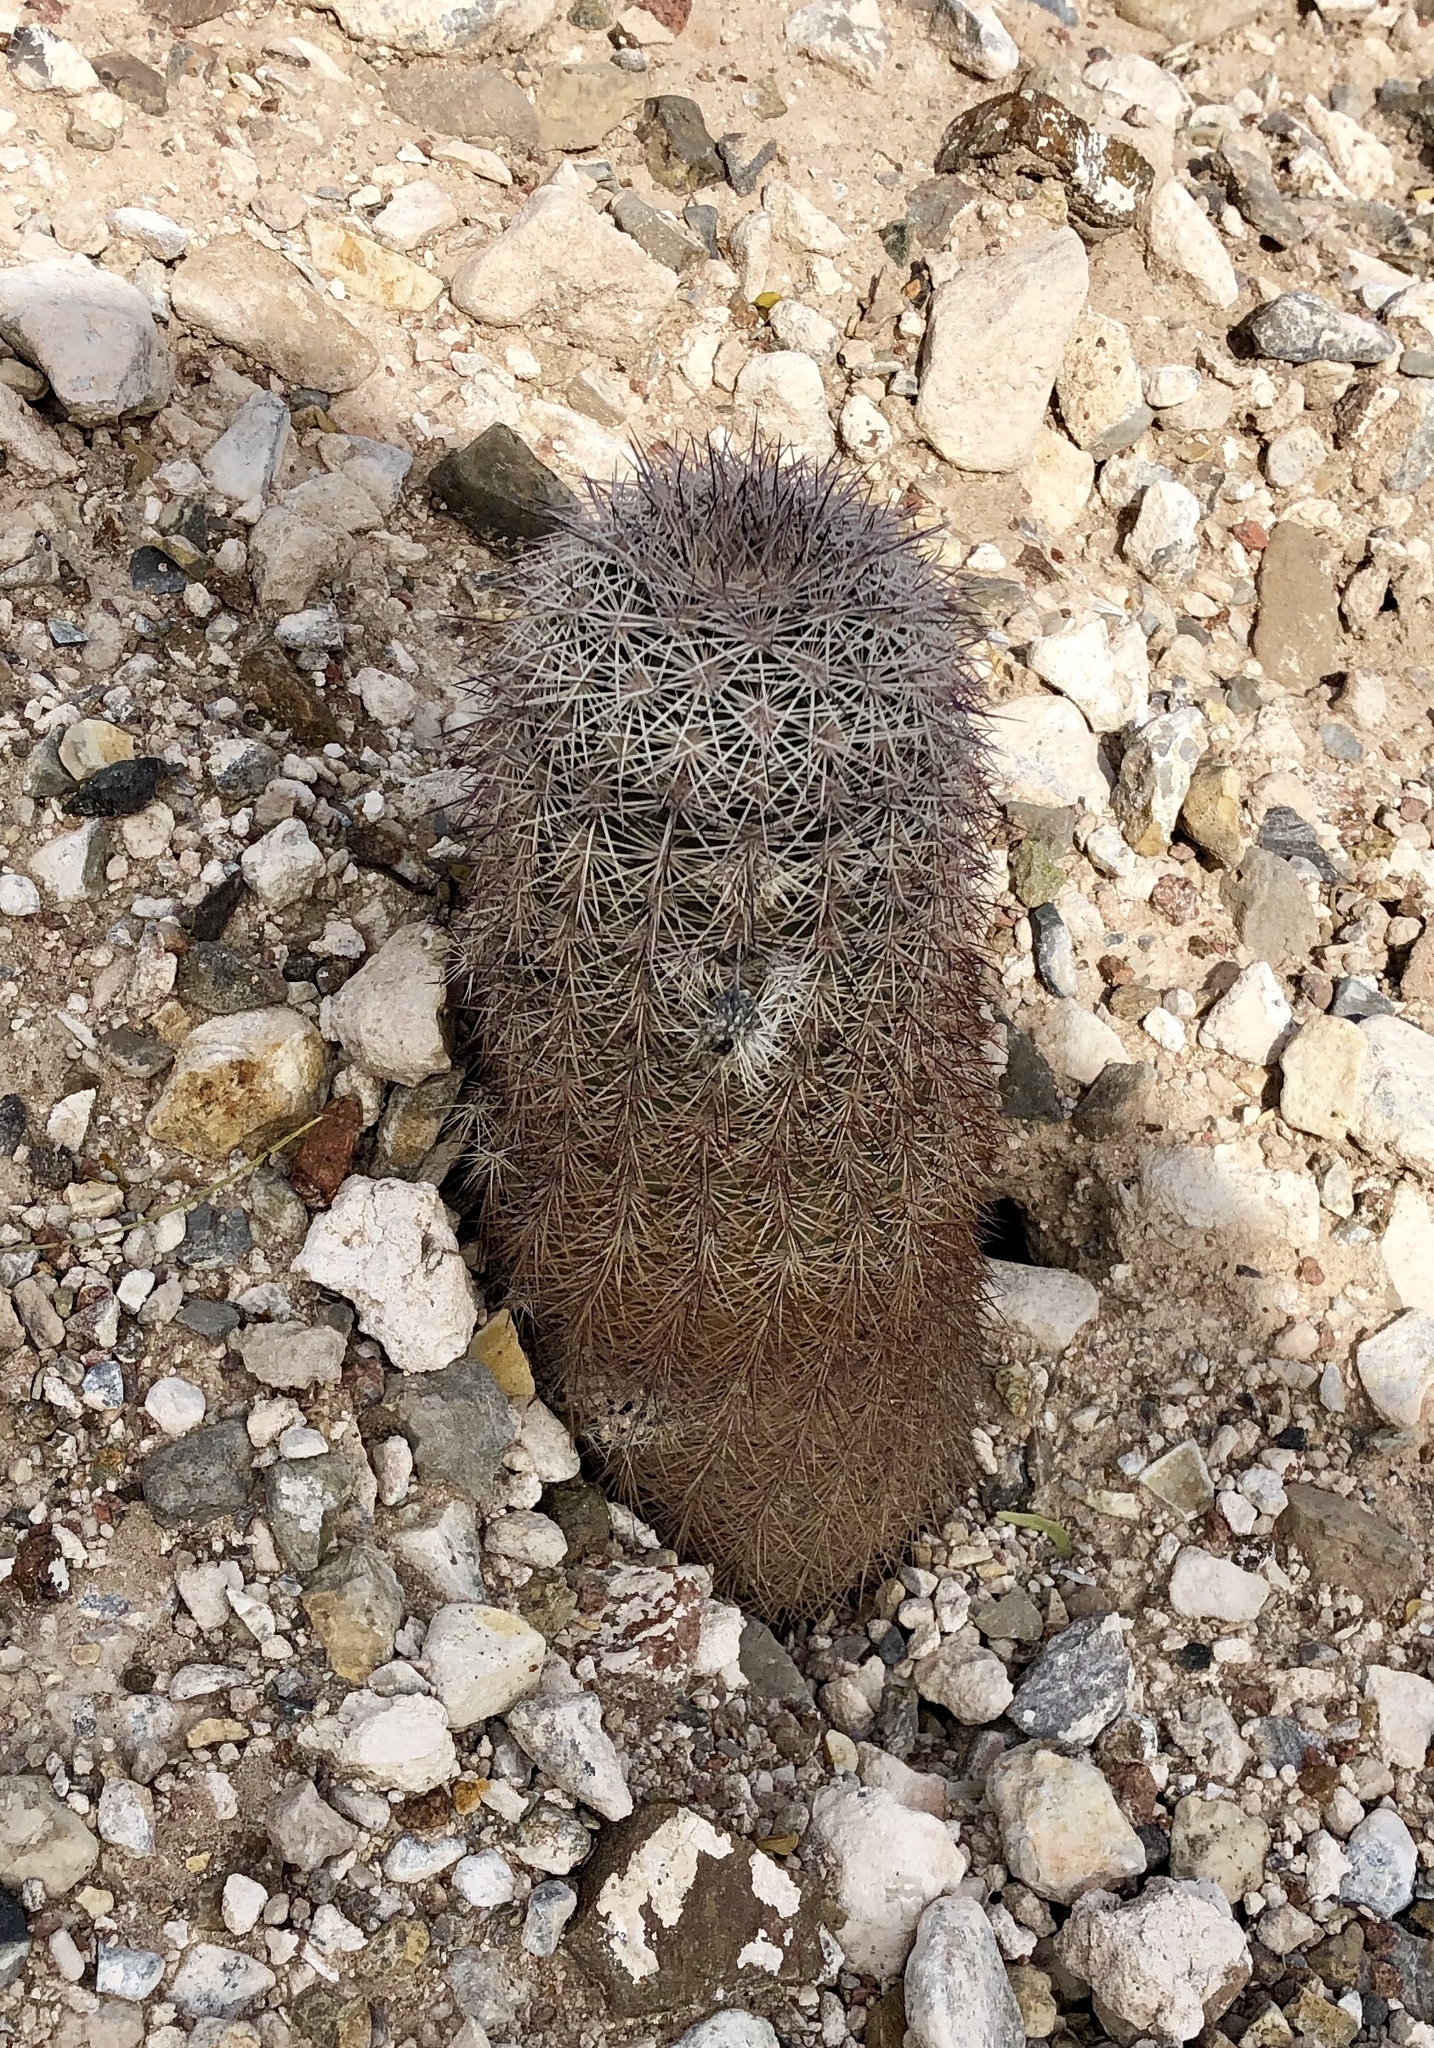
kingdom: Plantae
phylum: Tracheophyta
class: Magnoliopsida
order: Caryophyllales
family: Cactaceae
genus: Echinocereus
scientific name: Echinocereus dasyacanthus
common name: Spiny hedgehog cactus
